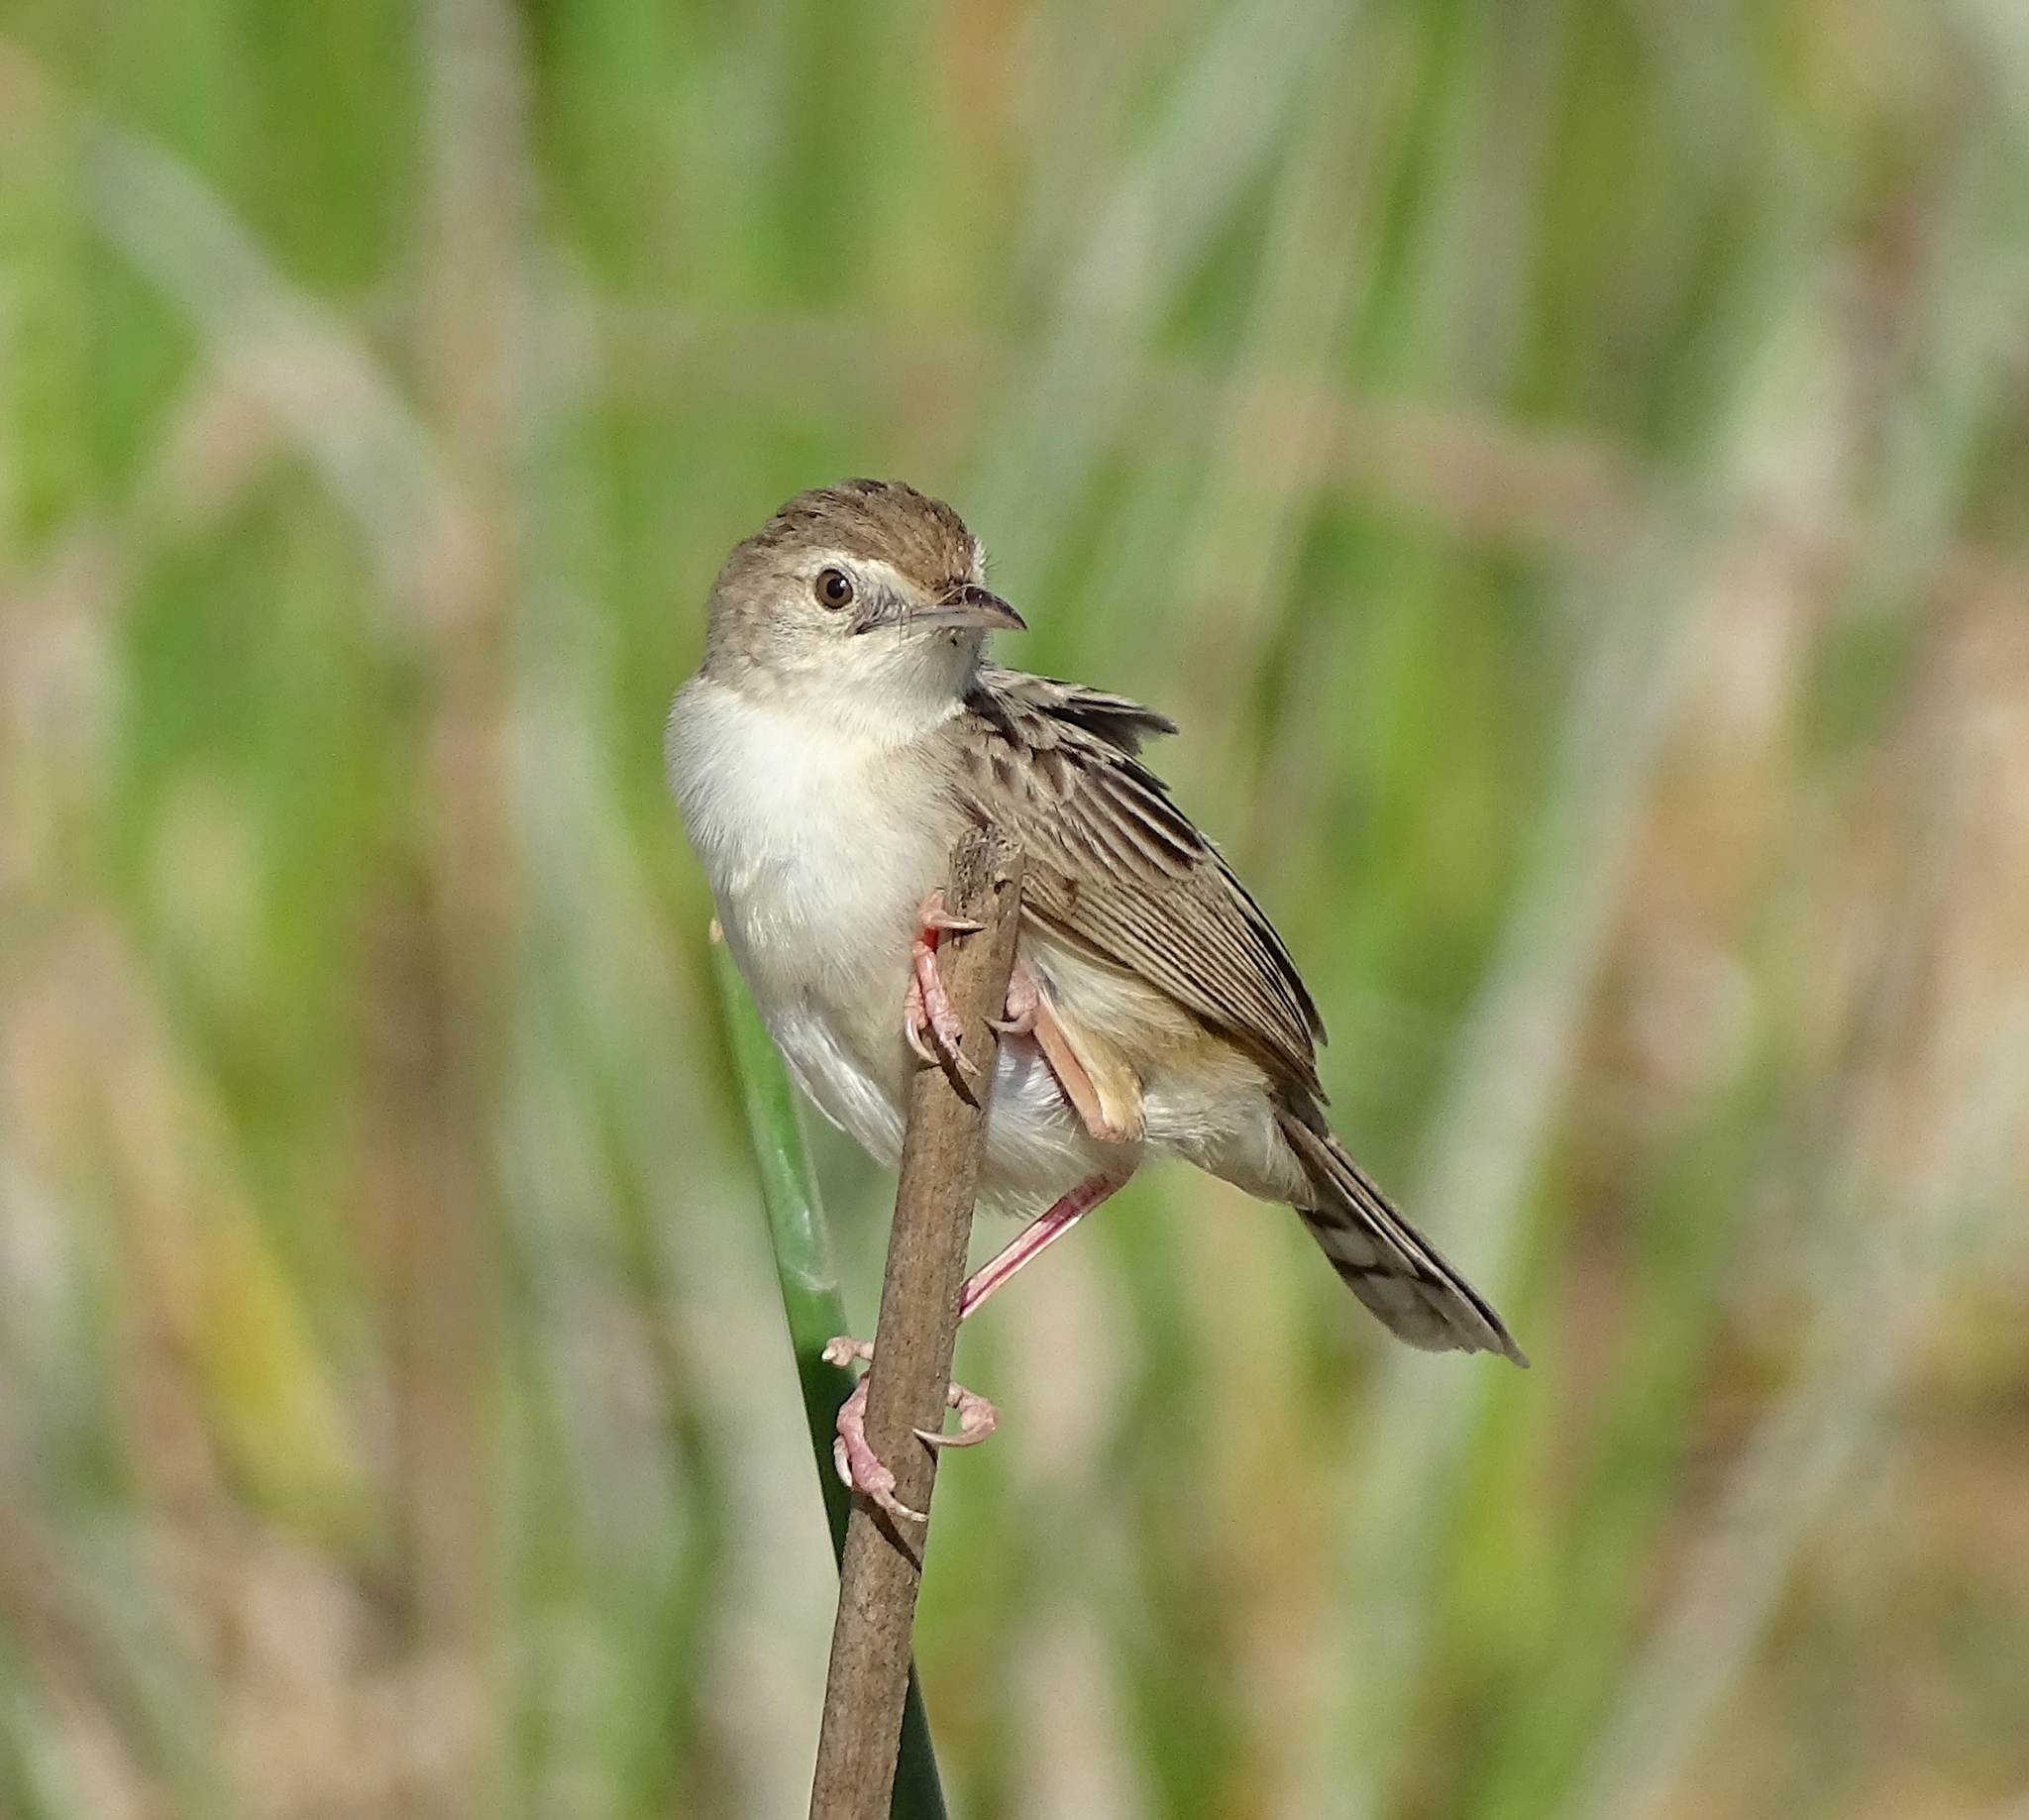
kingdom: Animalia
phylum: Chordata
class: Aves
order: Passeriformes
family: Cisticolidae
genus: Cisticola
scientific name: Cisticola cherina
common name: Madagascar cisticola
